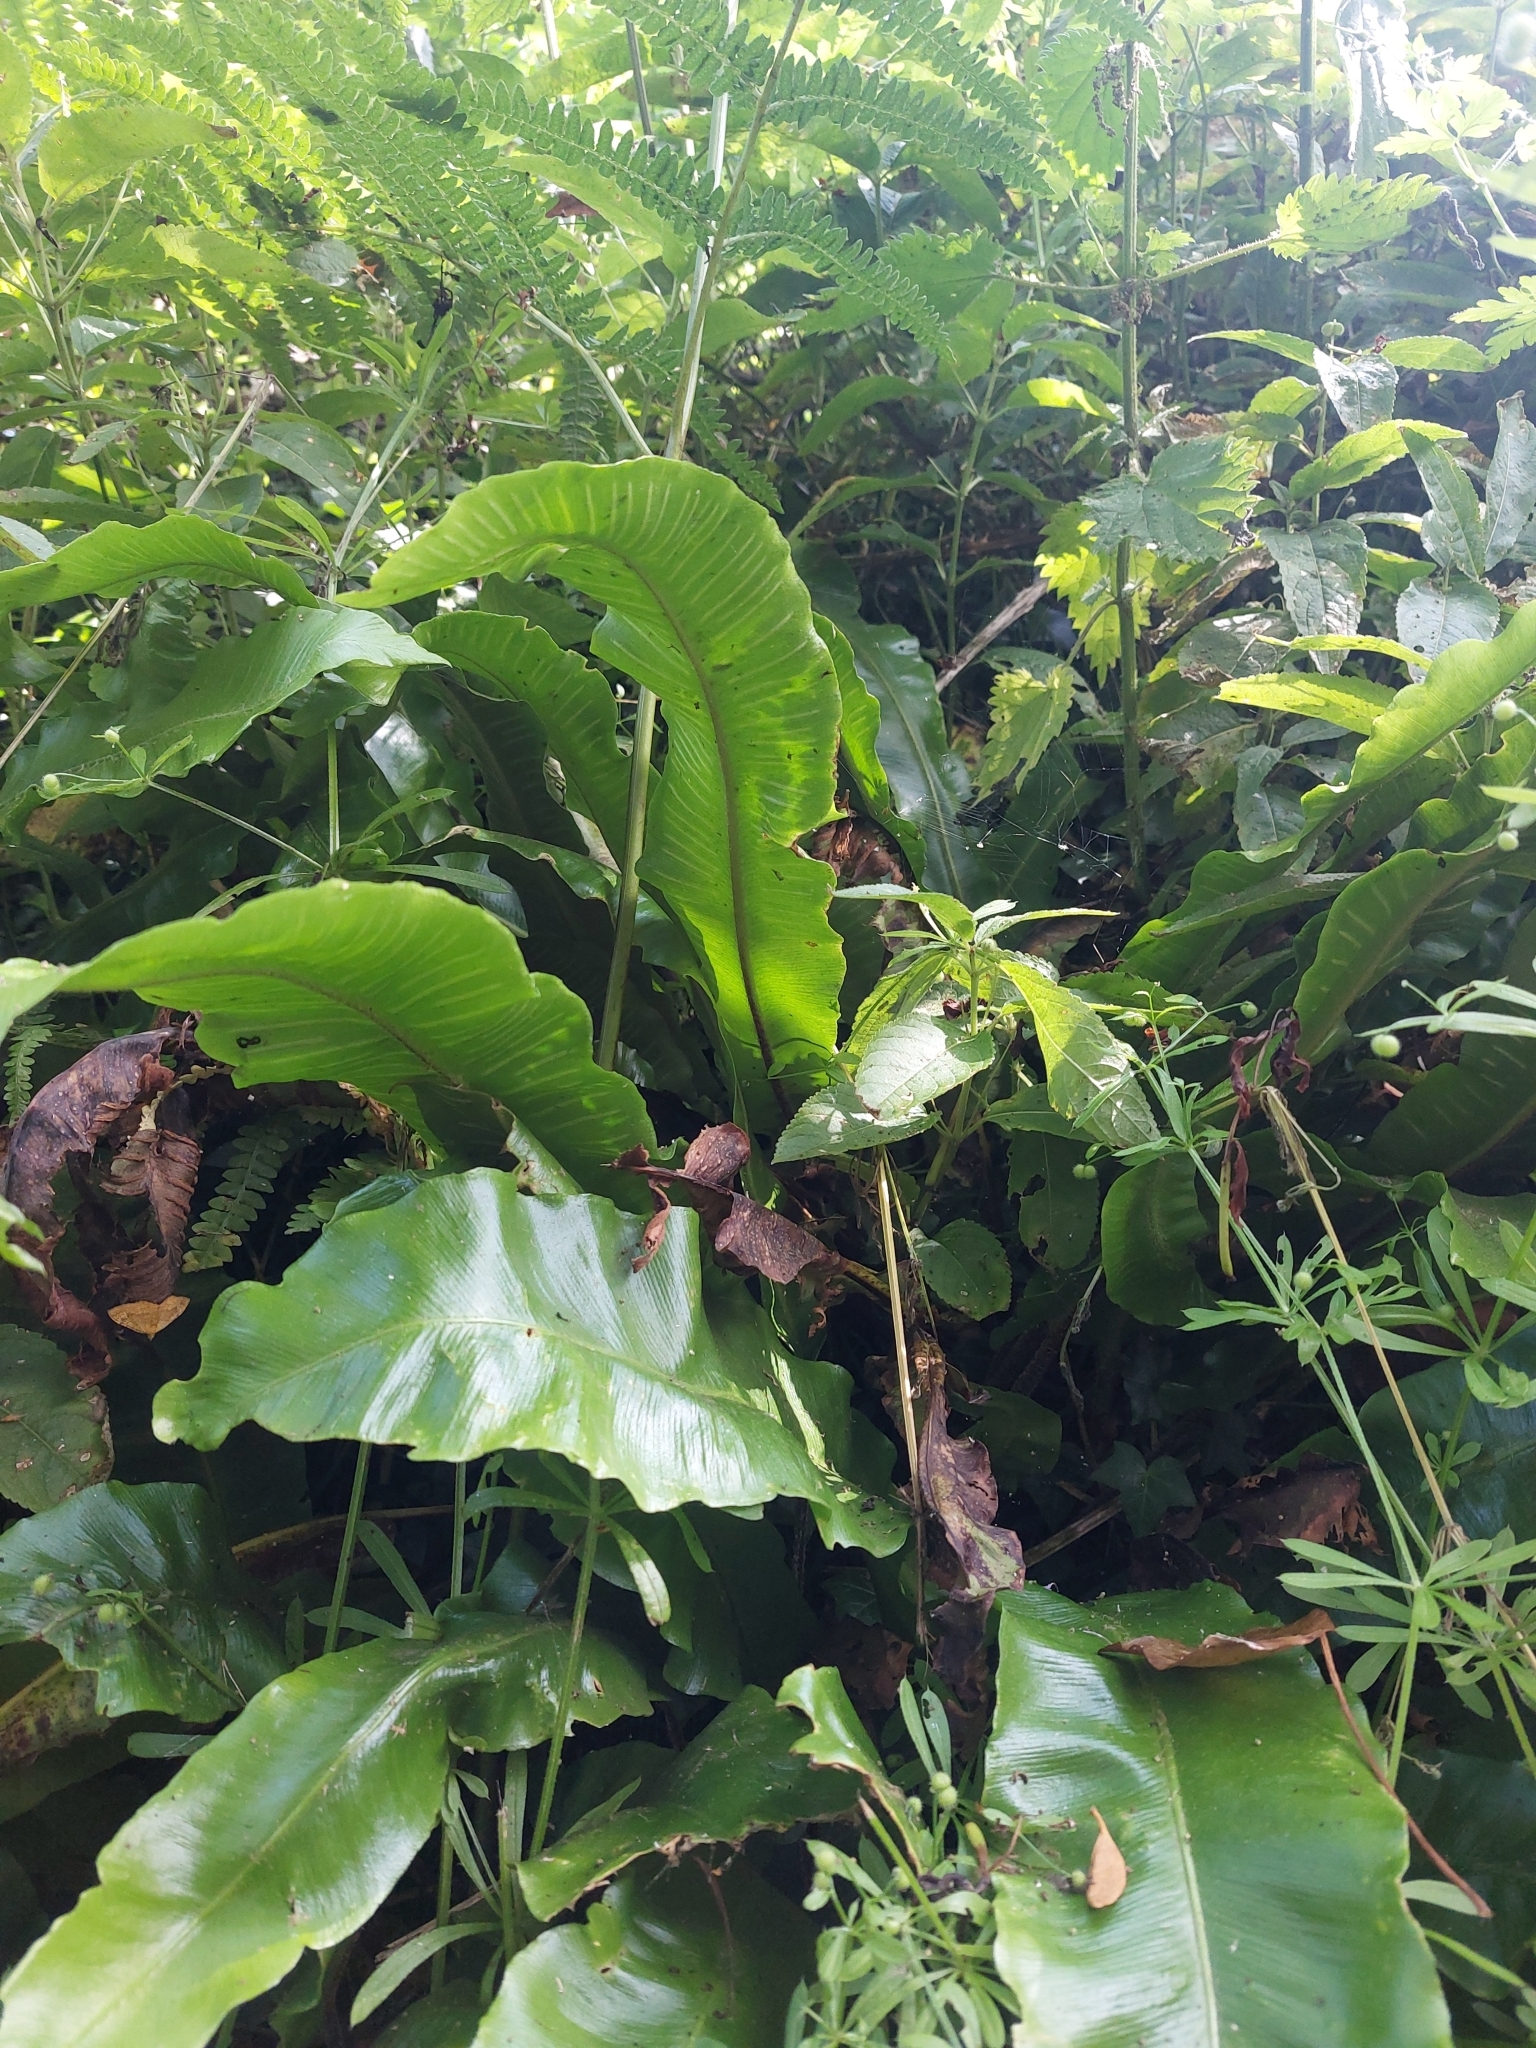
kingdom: Plantae
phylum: Tracheophyta
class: Polypodiopsida
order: Polypodiales
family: Aspleniaceae
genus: Asplenium
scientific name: Asplenium scolopendrium
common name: Hart's-tongue fern
